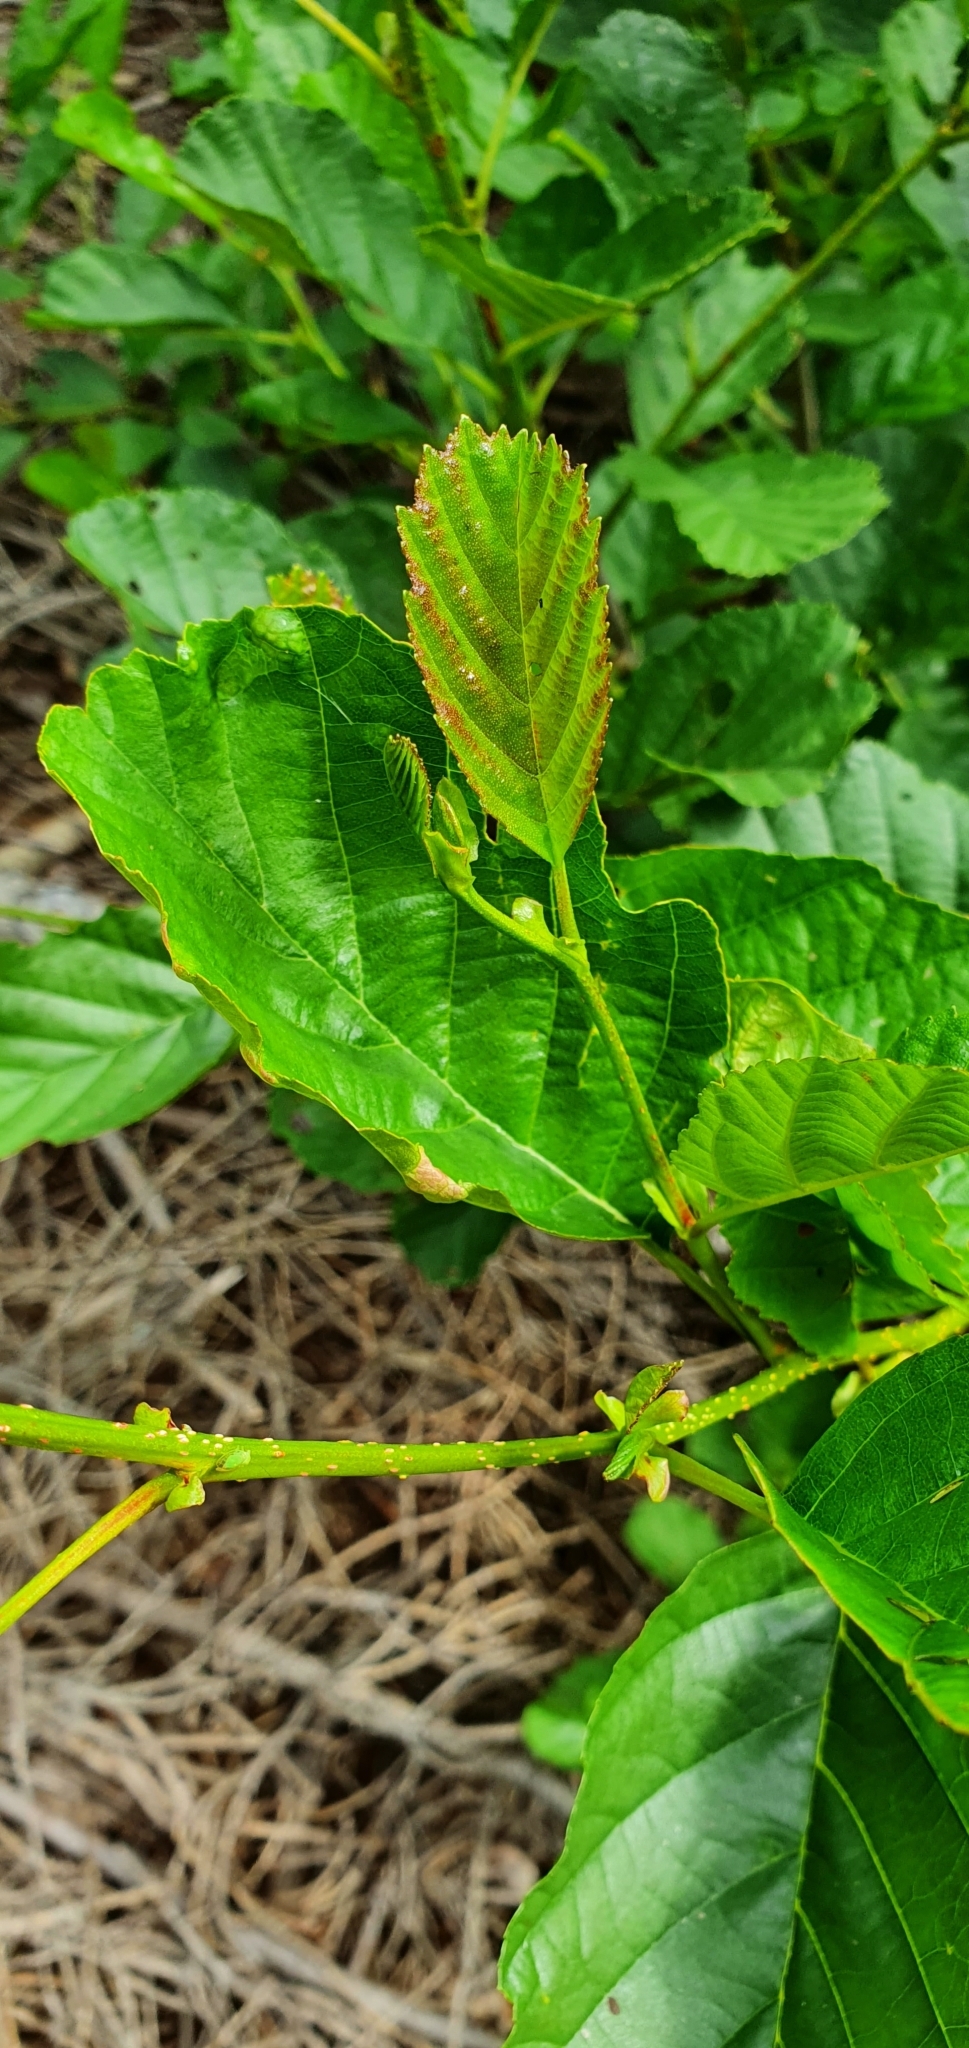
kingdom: Plantae
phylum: Tracheophyta
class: Magnoliopsida
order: Fagales
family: Betulaceae
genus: Alnus
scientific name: Alnus glutinosa
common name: Black alder
